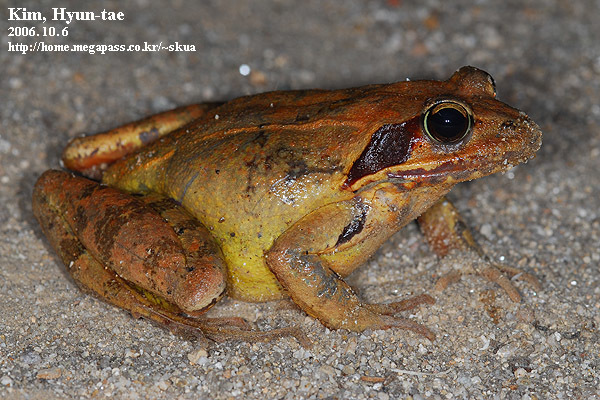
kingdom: Animalia
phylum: Chordata
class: Amphibia
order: Anura
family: Ranidae
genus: Rana
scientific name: Rana uenoi
